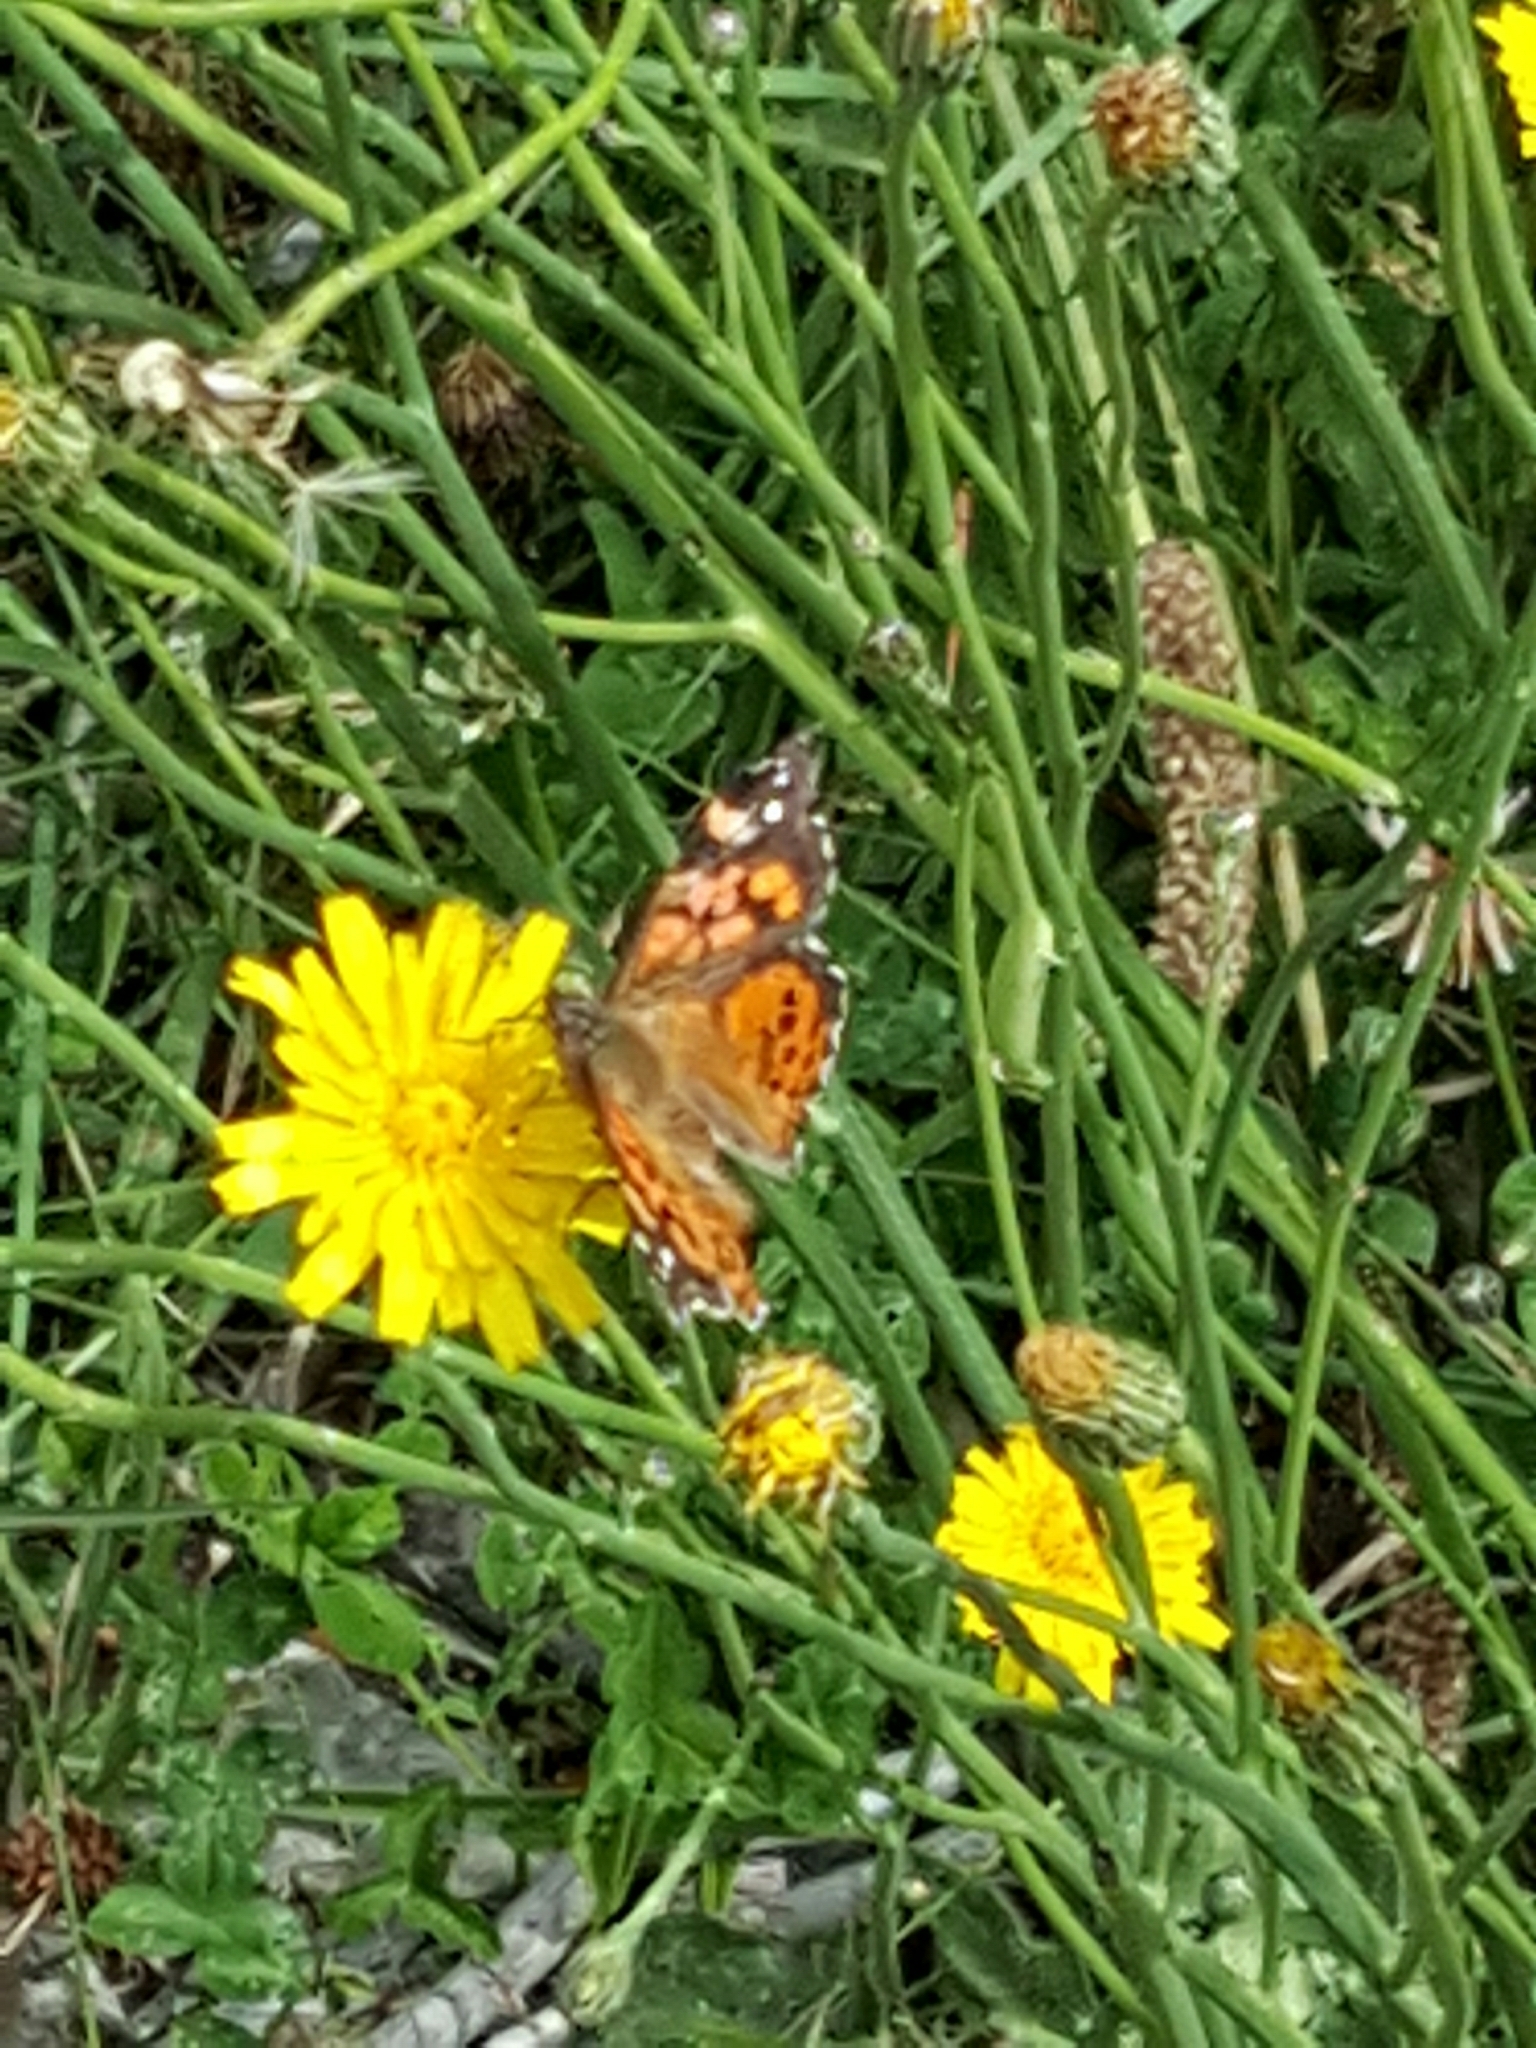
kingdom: Animalia
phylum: Arthropoda
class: Insecta
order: Lepidoptera
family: Nymphalidae
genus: Vanessa
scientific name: Vanessa carye
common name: Subtropical lady
